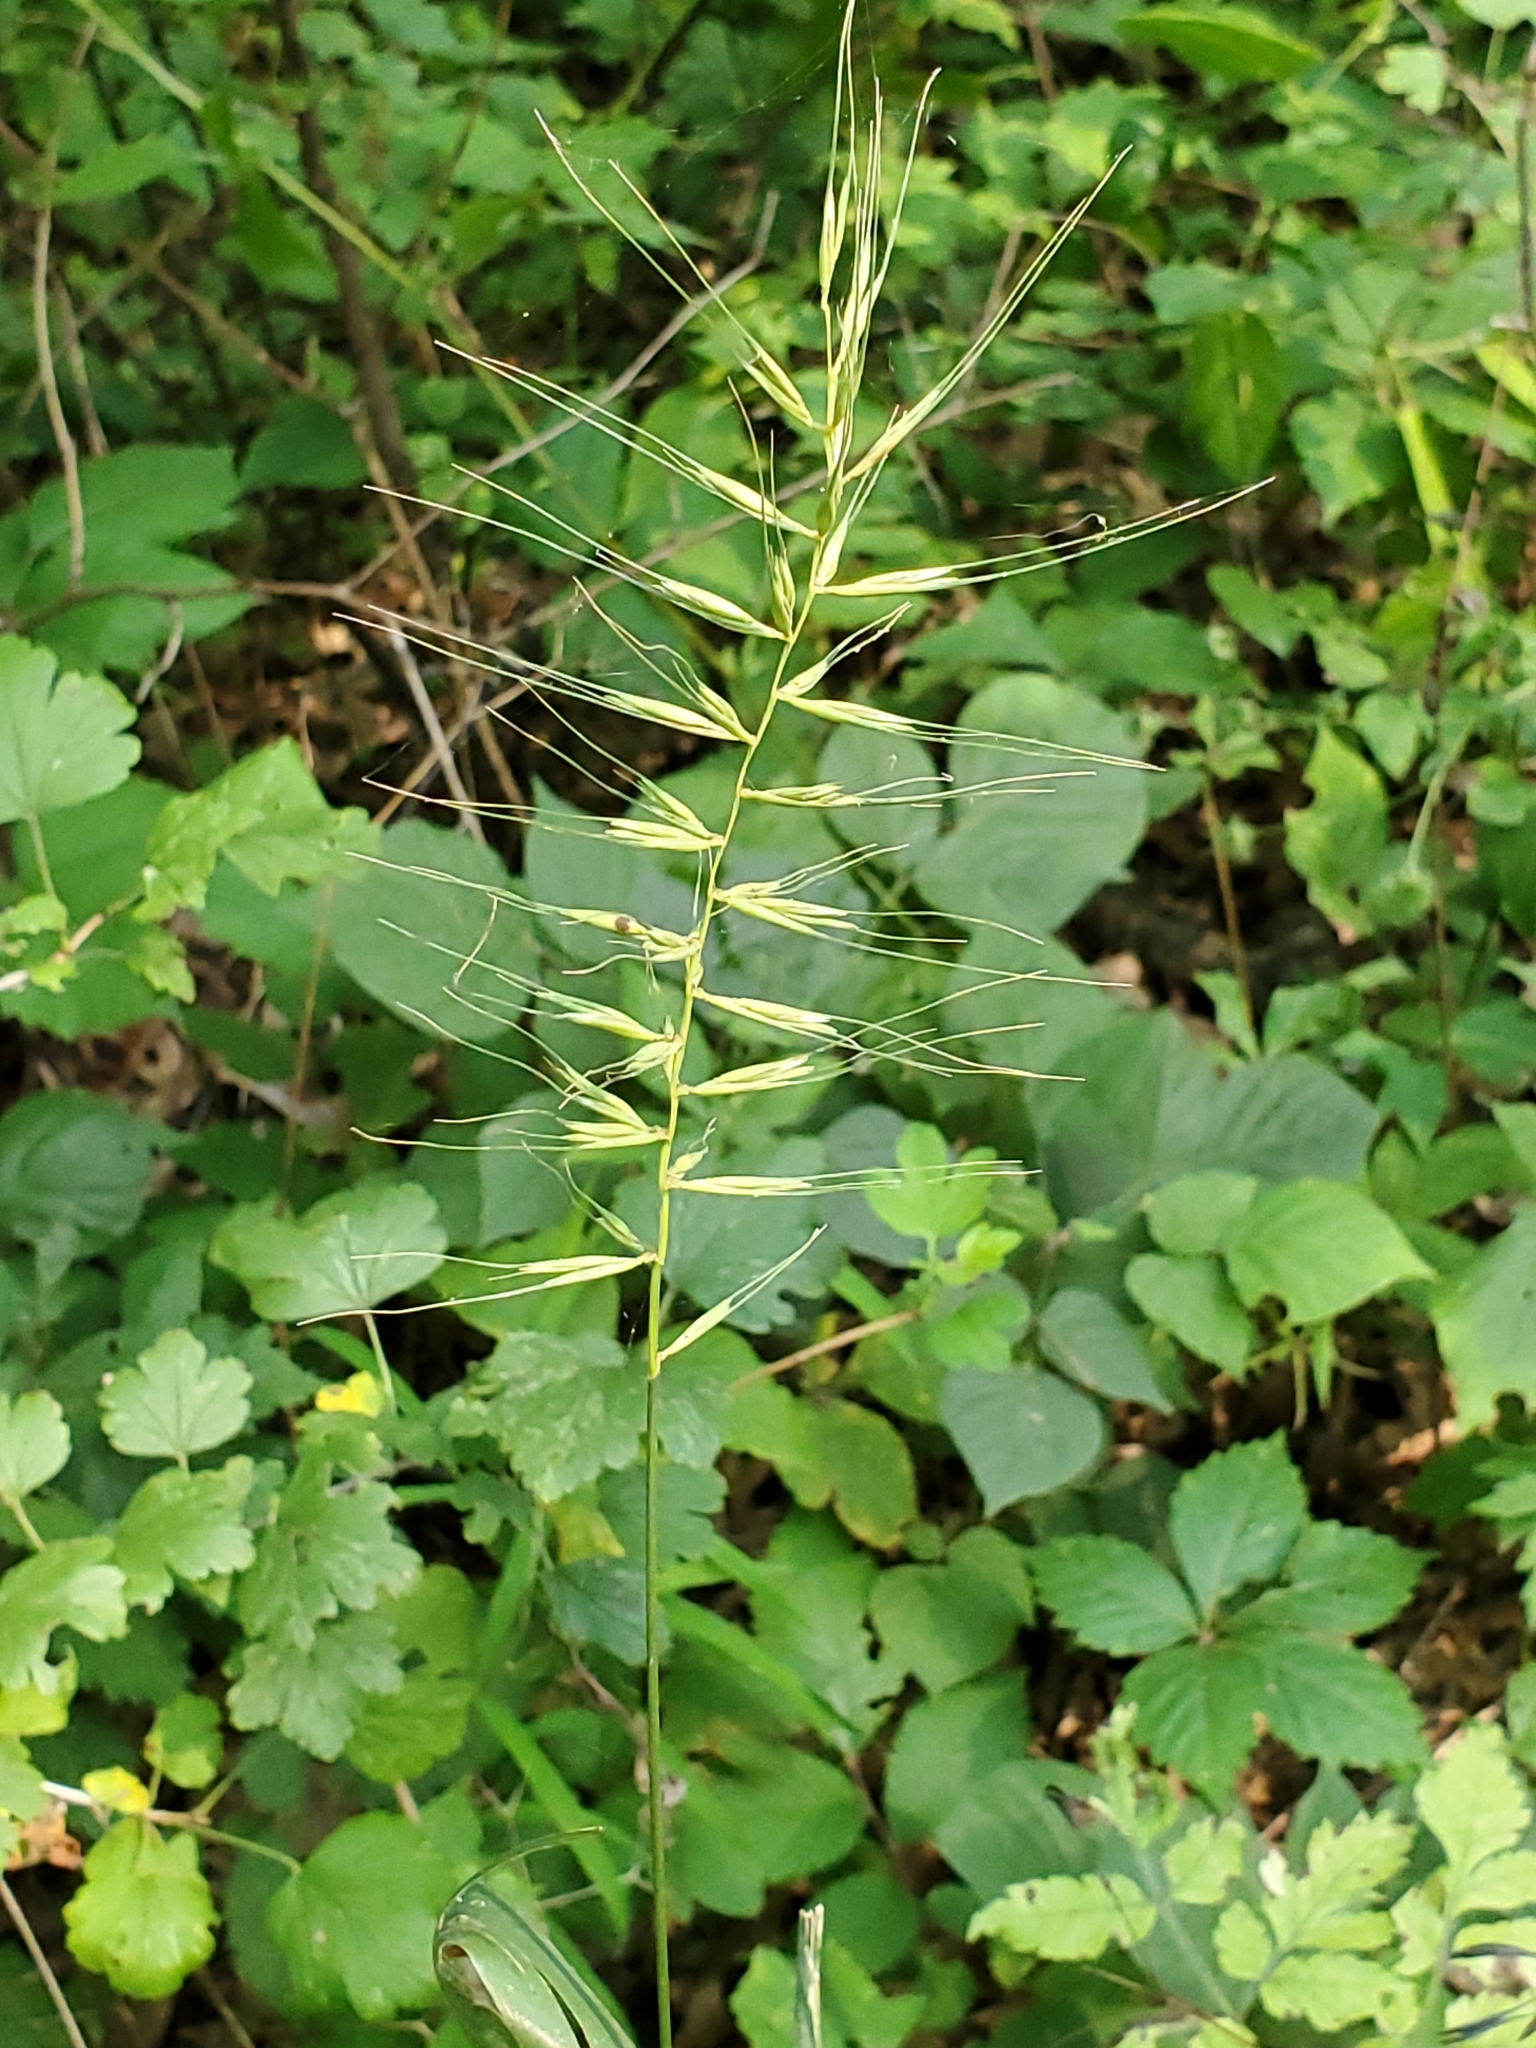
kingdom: Plantae
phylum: Tracheophyta
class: Liliopsida
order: Poales
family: Poaceae
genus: Elymus
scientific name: Elymus hystrix
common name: Bottlebrush grass
